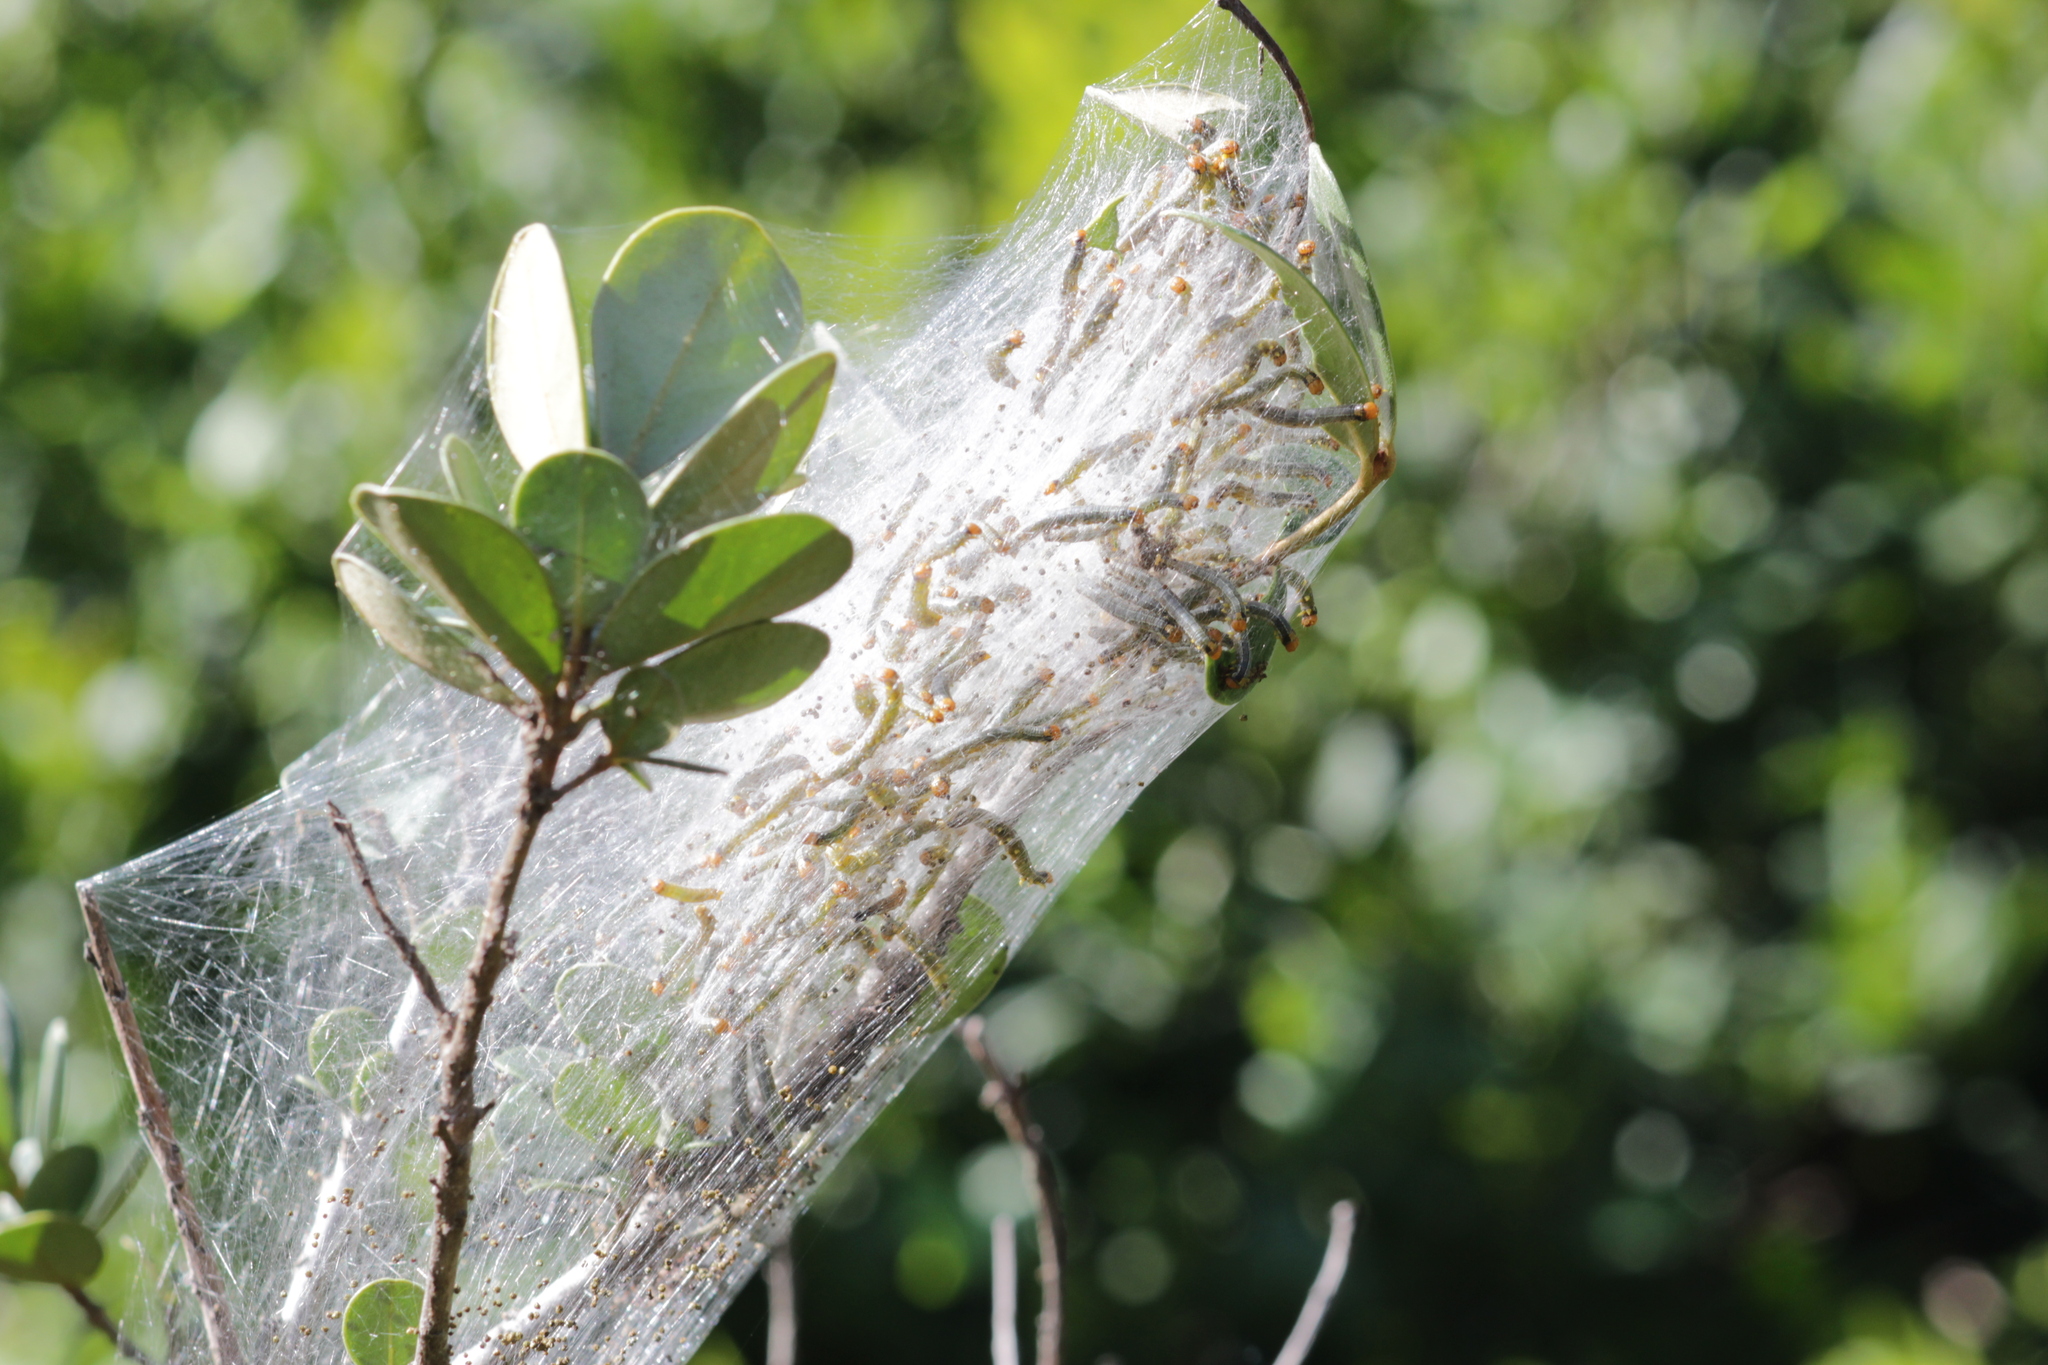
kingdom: Animalia
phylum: Arthropoda
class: Insecta
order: Lepidoptera
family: Pyralidae
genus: Zitha
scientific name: Zitha carnicolor
